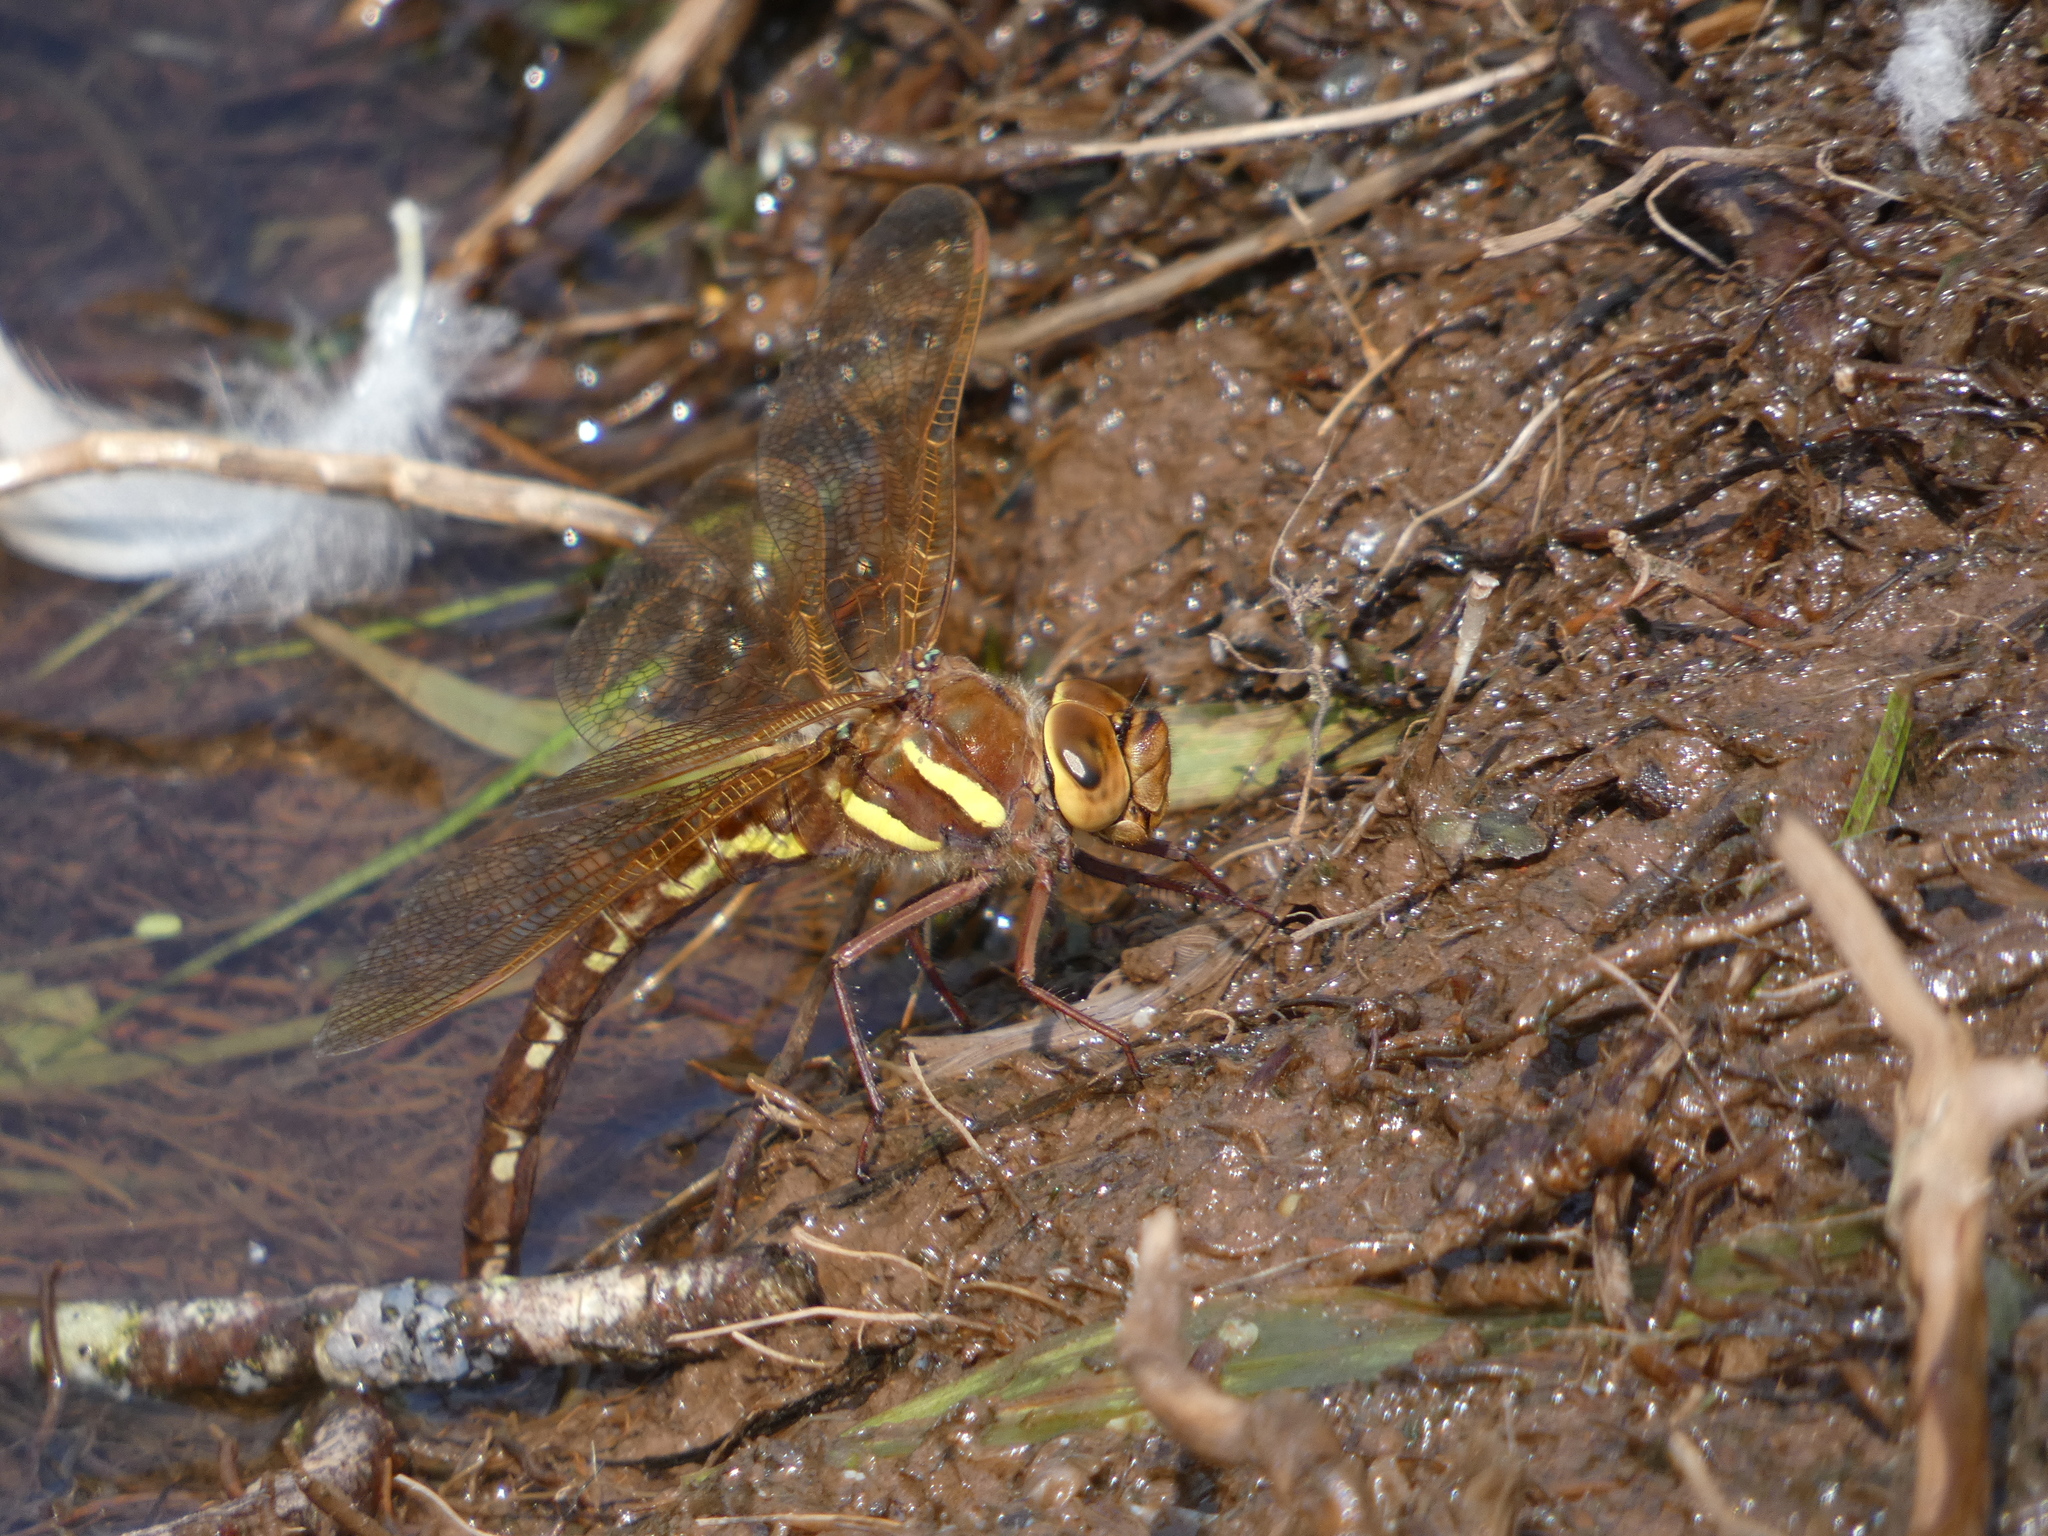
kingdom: Animalia
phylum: Arthropoda
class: Insecta
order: Odonata
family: Aeshnidae
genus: Aeshna
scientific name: Aeshna grandis
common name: Brown hawker
